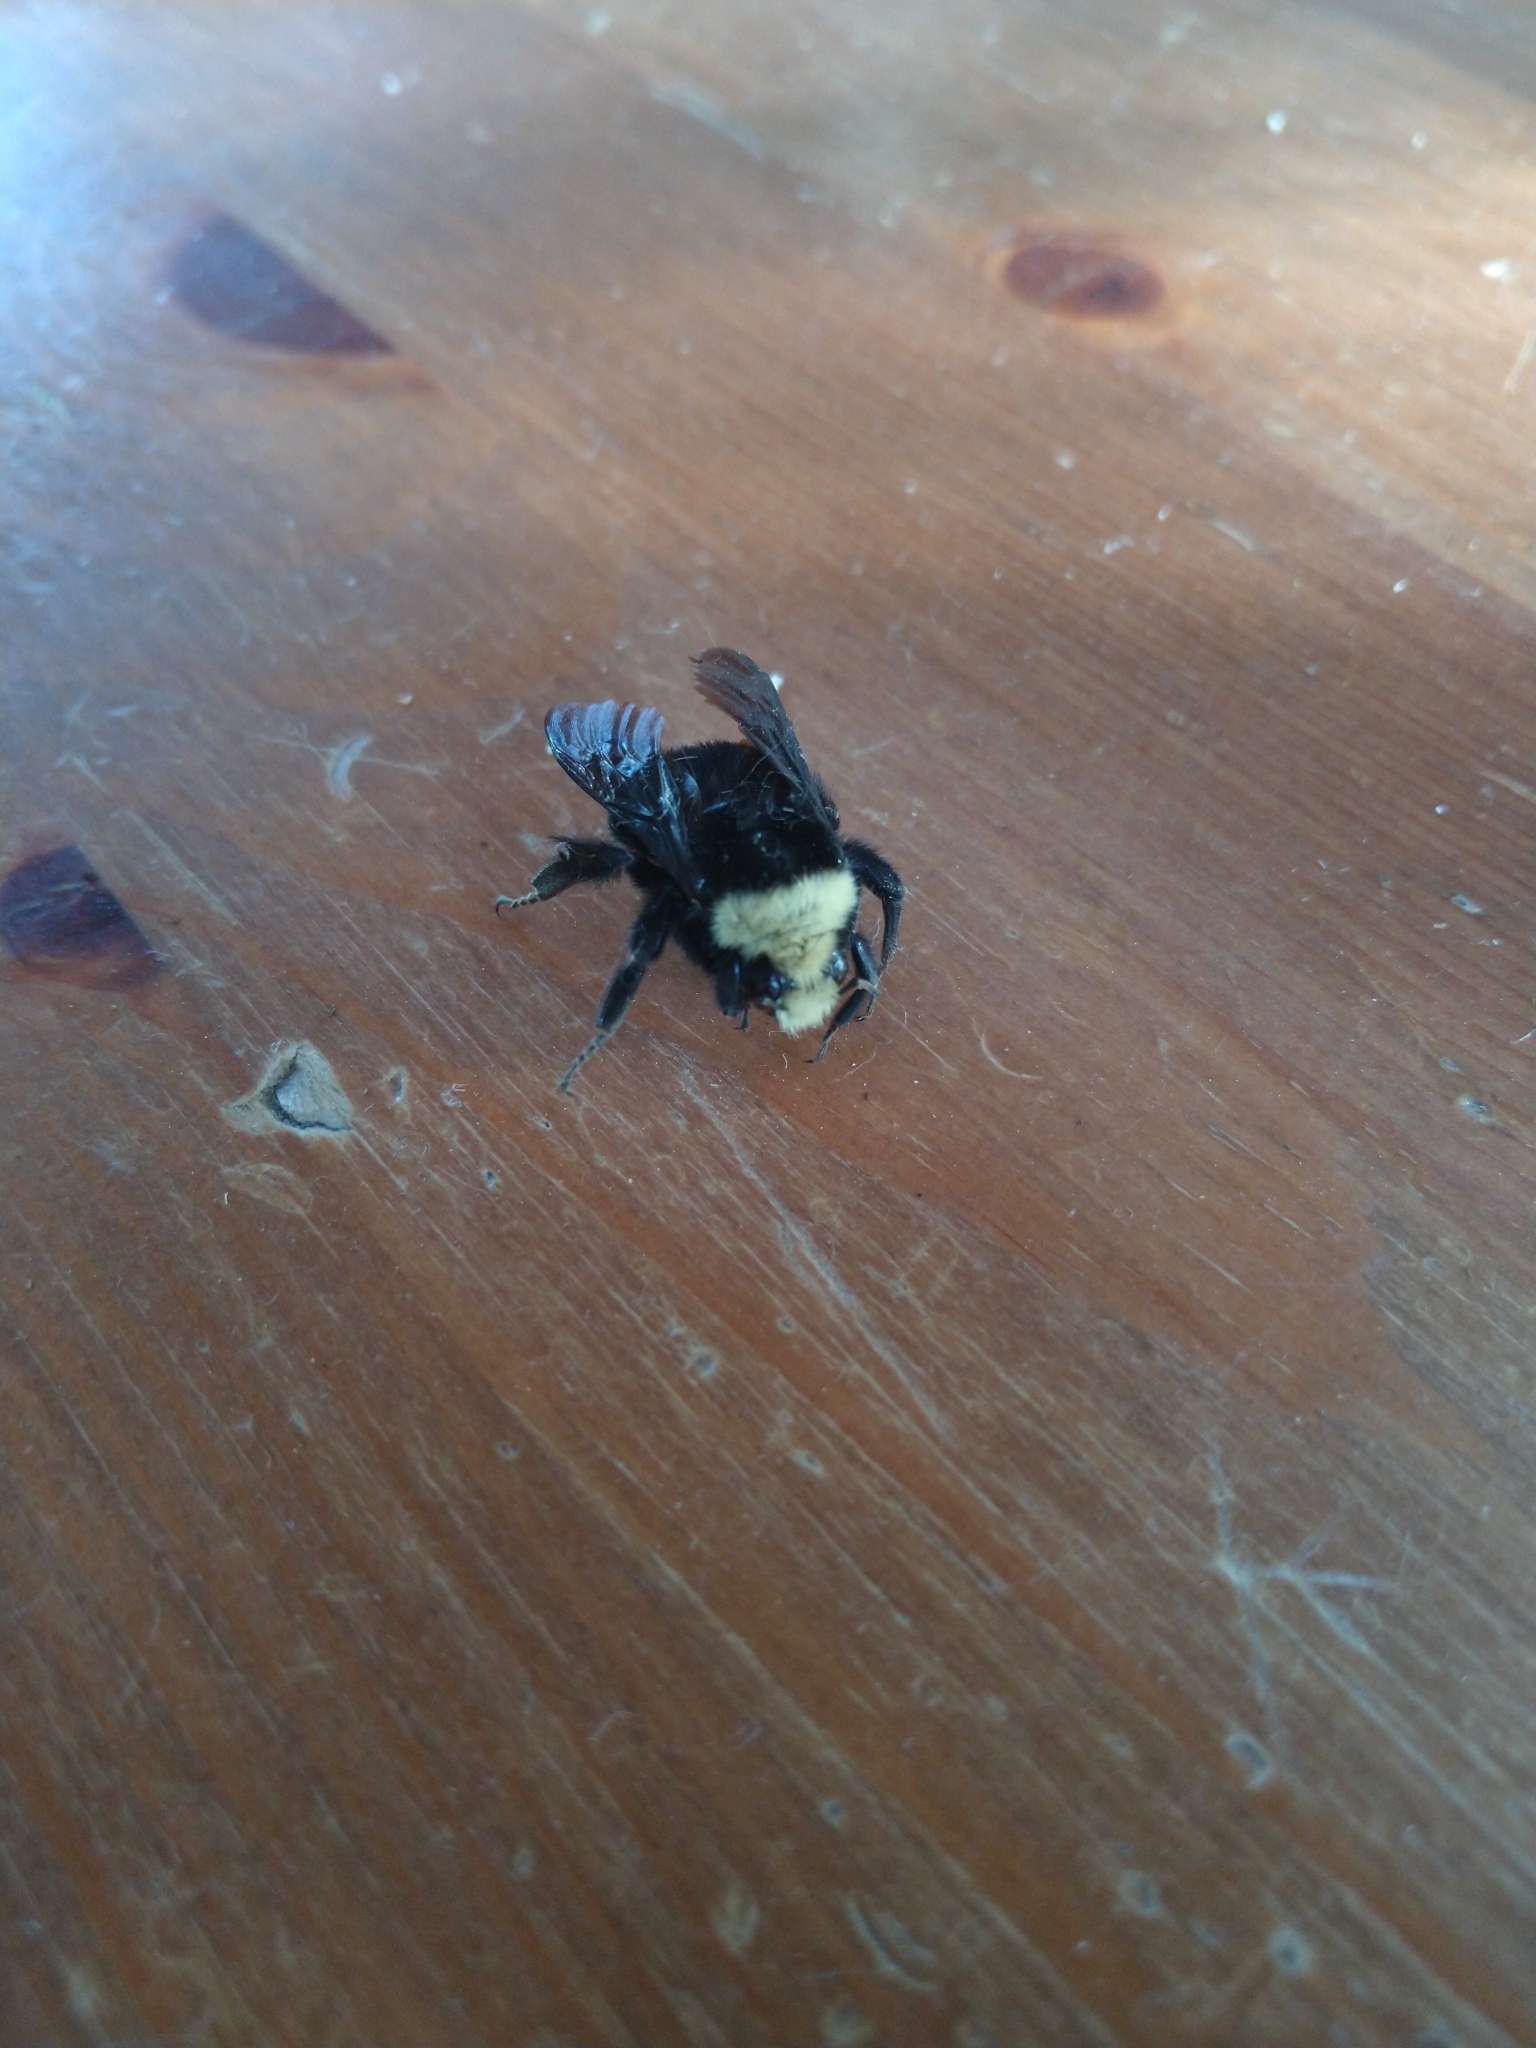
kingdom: Animalia
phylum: Arthropoda
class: Insecta
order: Hymenoptera
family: Apidae
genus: Bombus
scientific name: Bombus vosnesenskii
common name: Vosnesensky bumble bee
